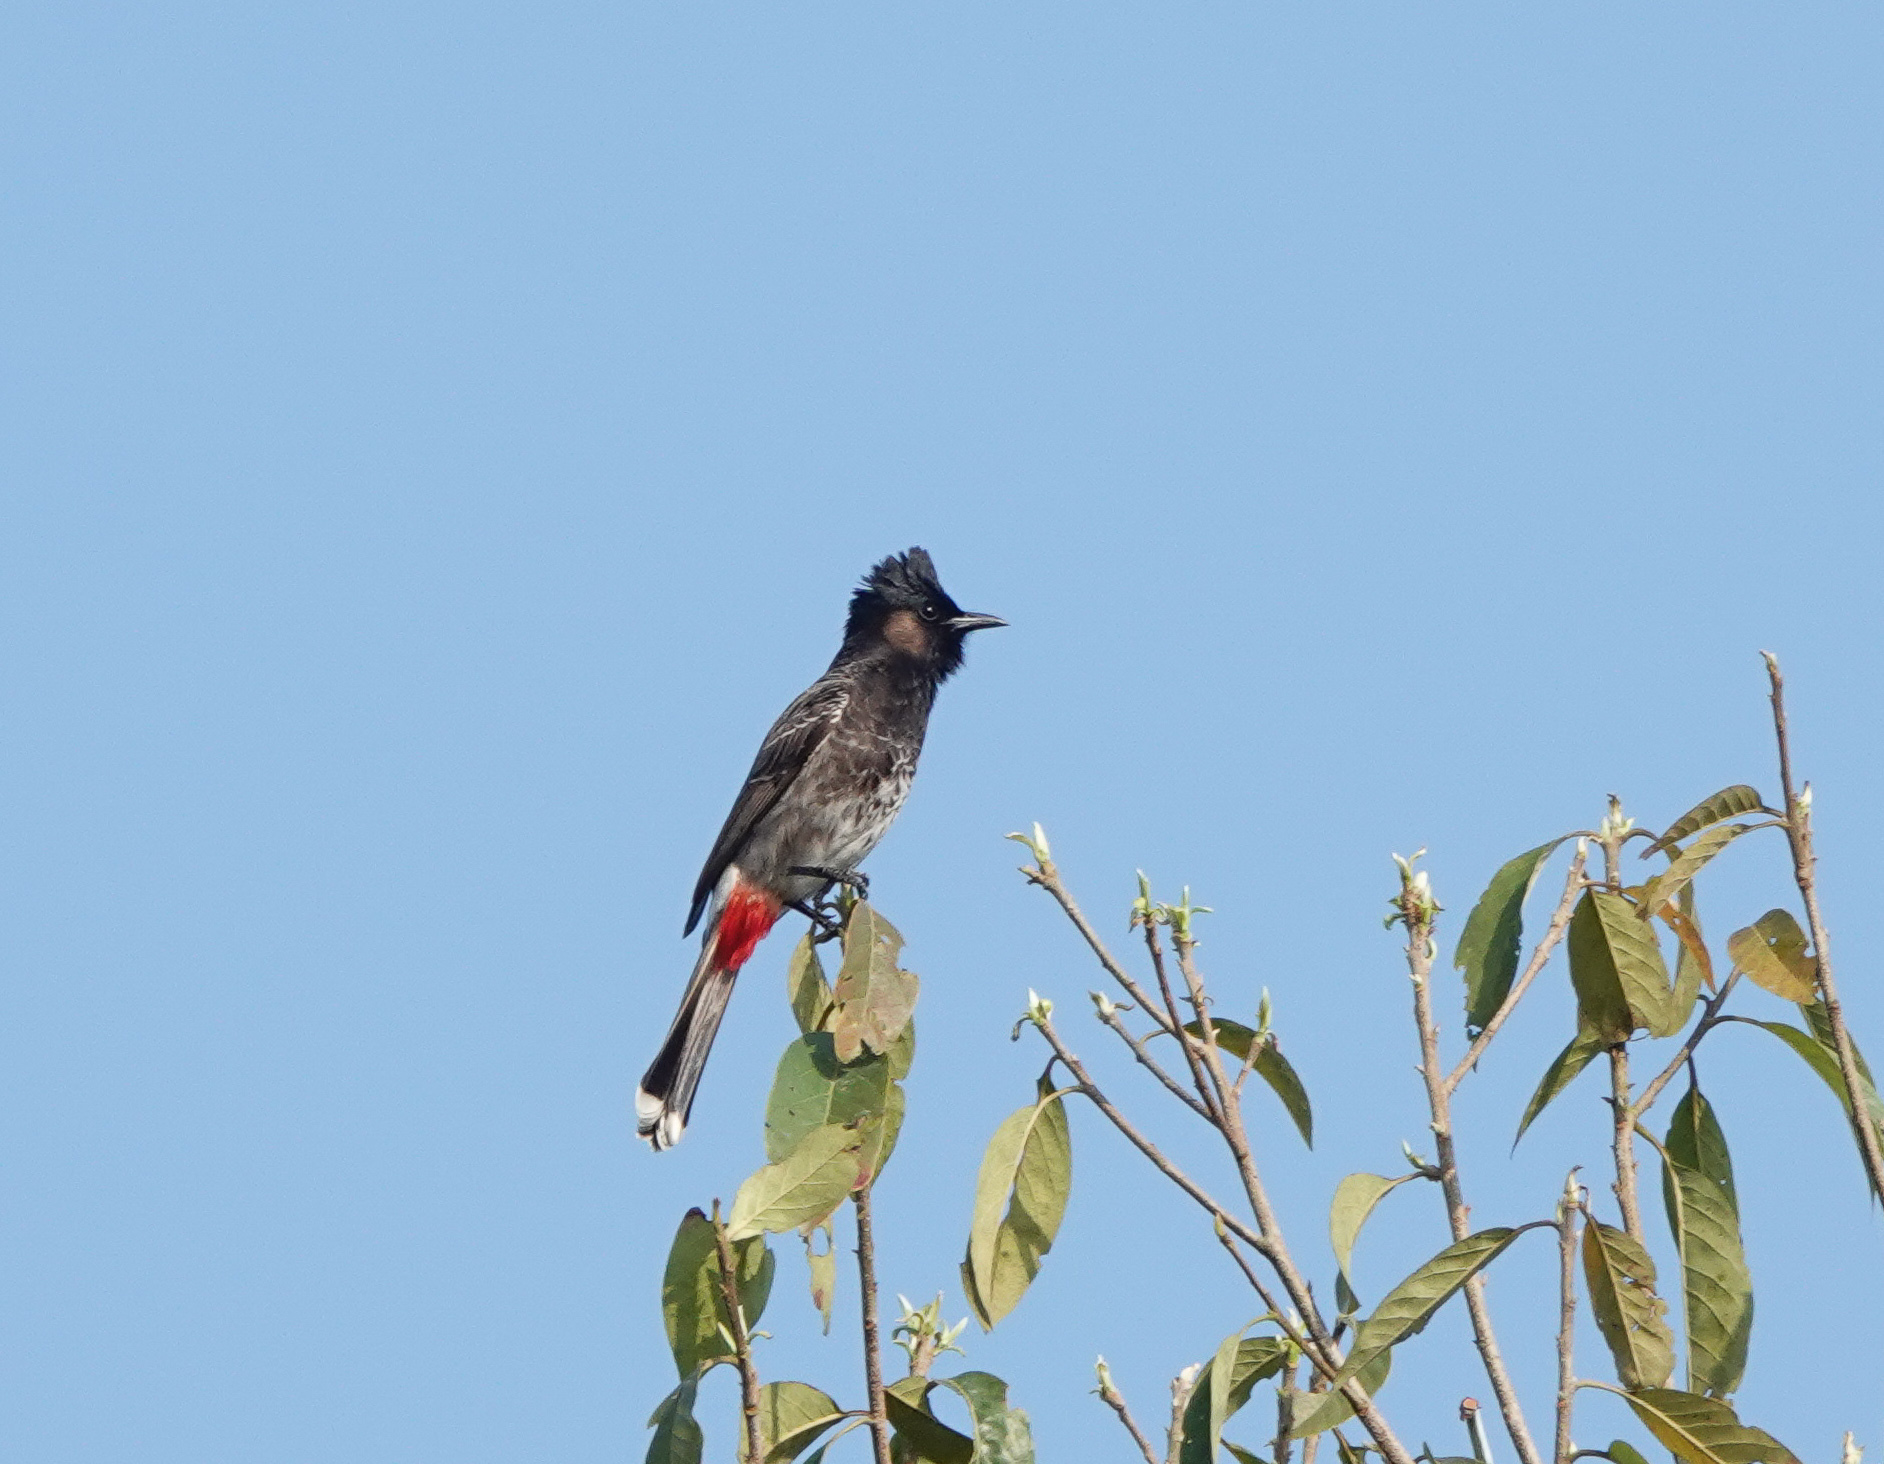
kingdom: Animalia
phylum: Chordata
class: Aves
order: Passeriformes
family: Pycnonotidae
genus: Pycnonotus
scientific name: Pycnonotus cafer
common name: Red-vented bulbul
